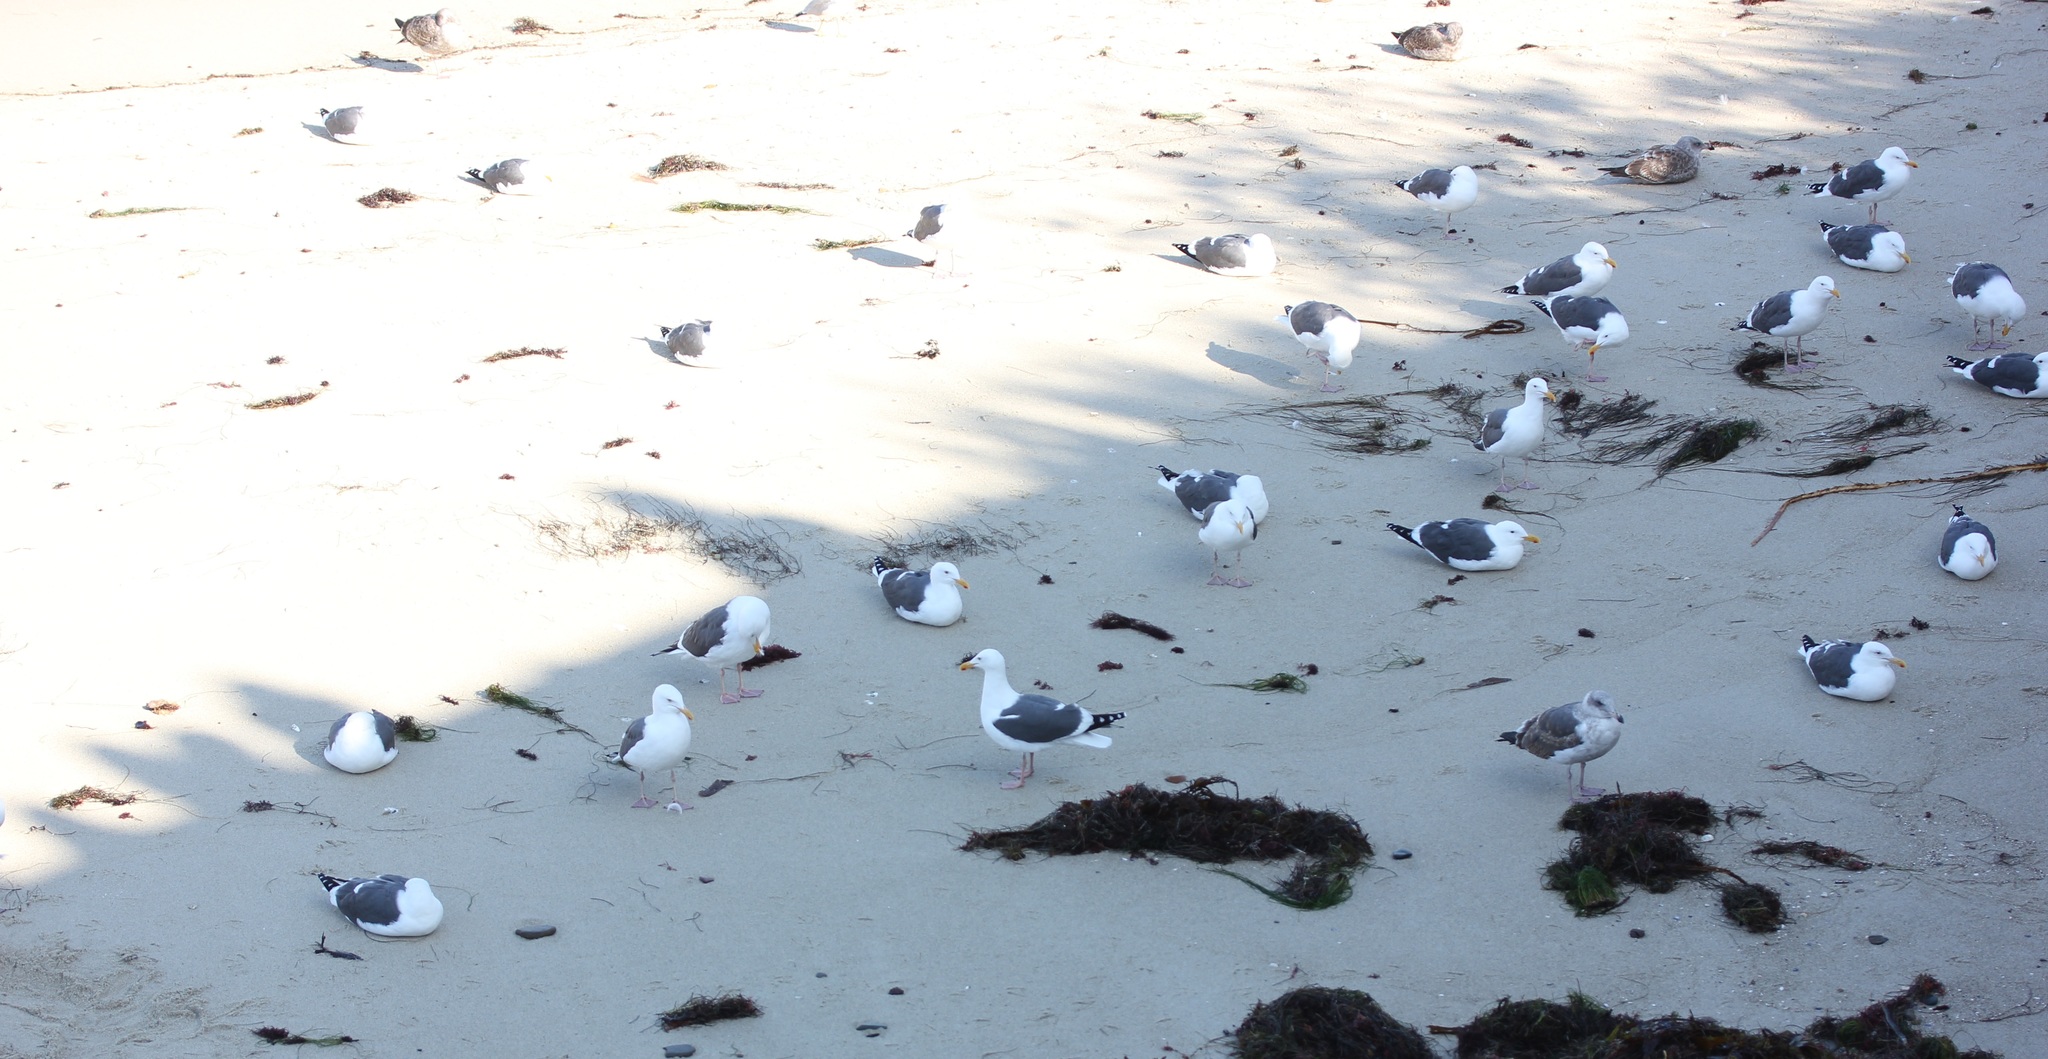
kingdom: Animalia
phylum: Chordata
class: Aves
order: Charadriiformes
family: Laridae
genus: Larus
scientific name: Larus occidentalis
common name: Western gull
